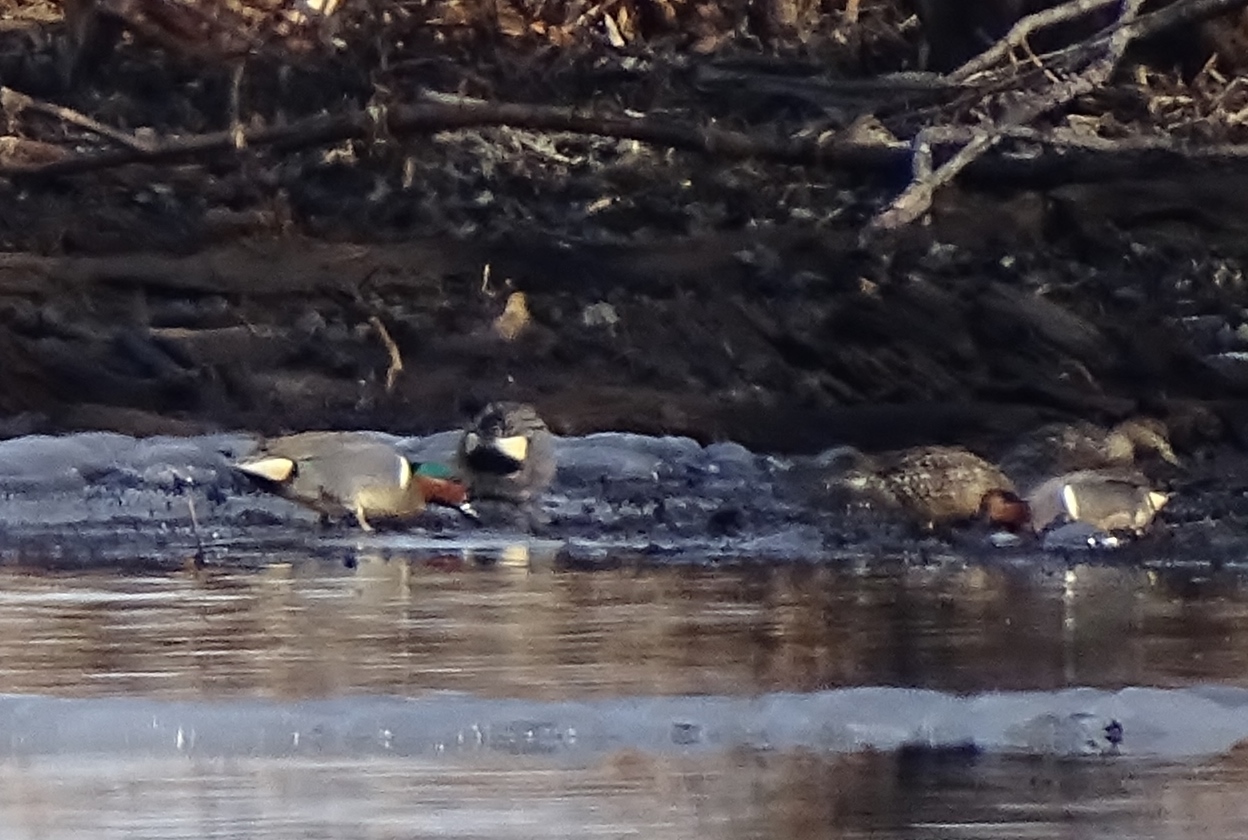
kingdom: Animalia
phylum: Chordata
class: Aves
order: Anseriformes
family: Anatidae
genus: Anas
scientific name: Anas crecca
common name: Eurasian teal
